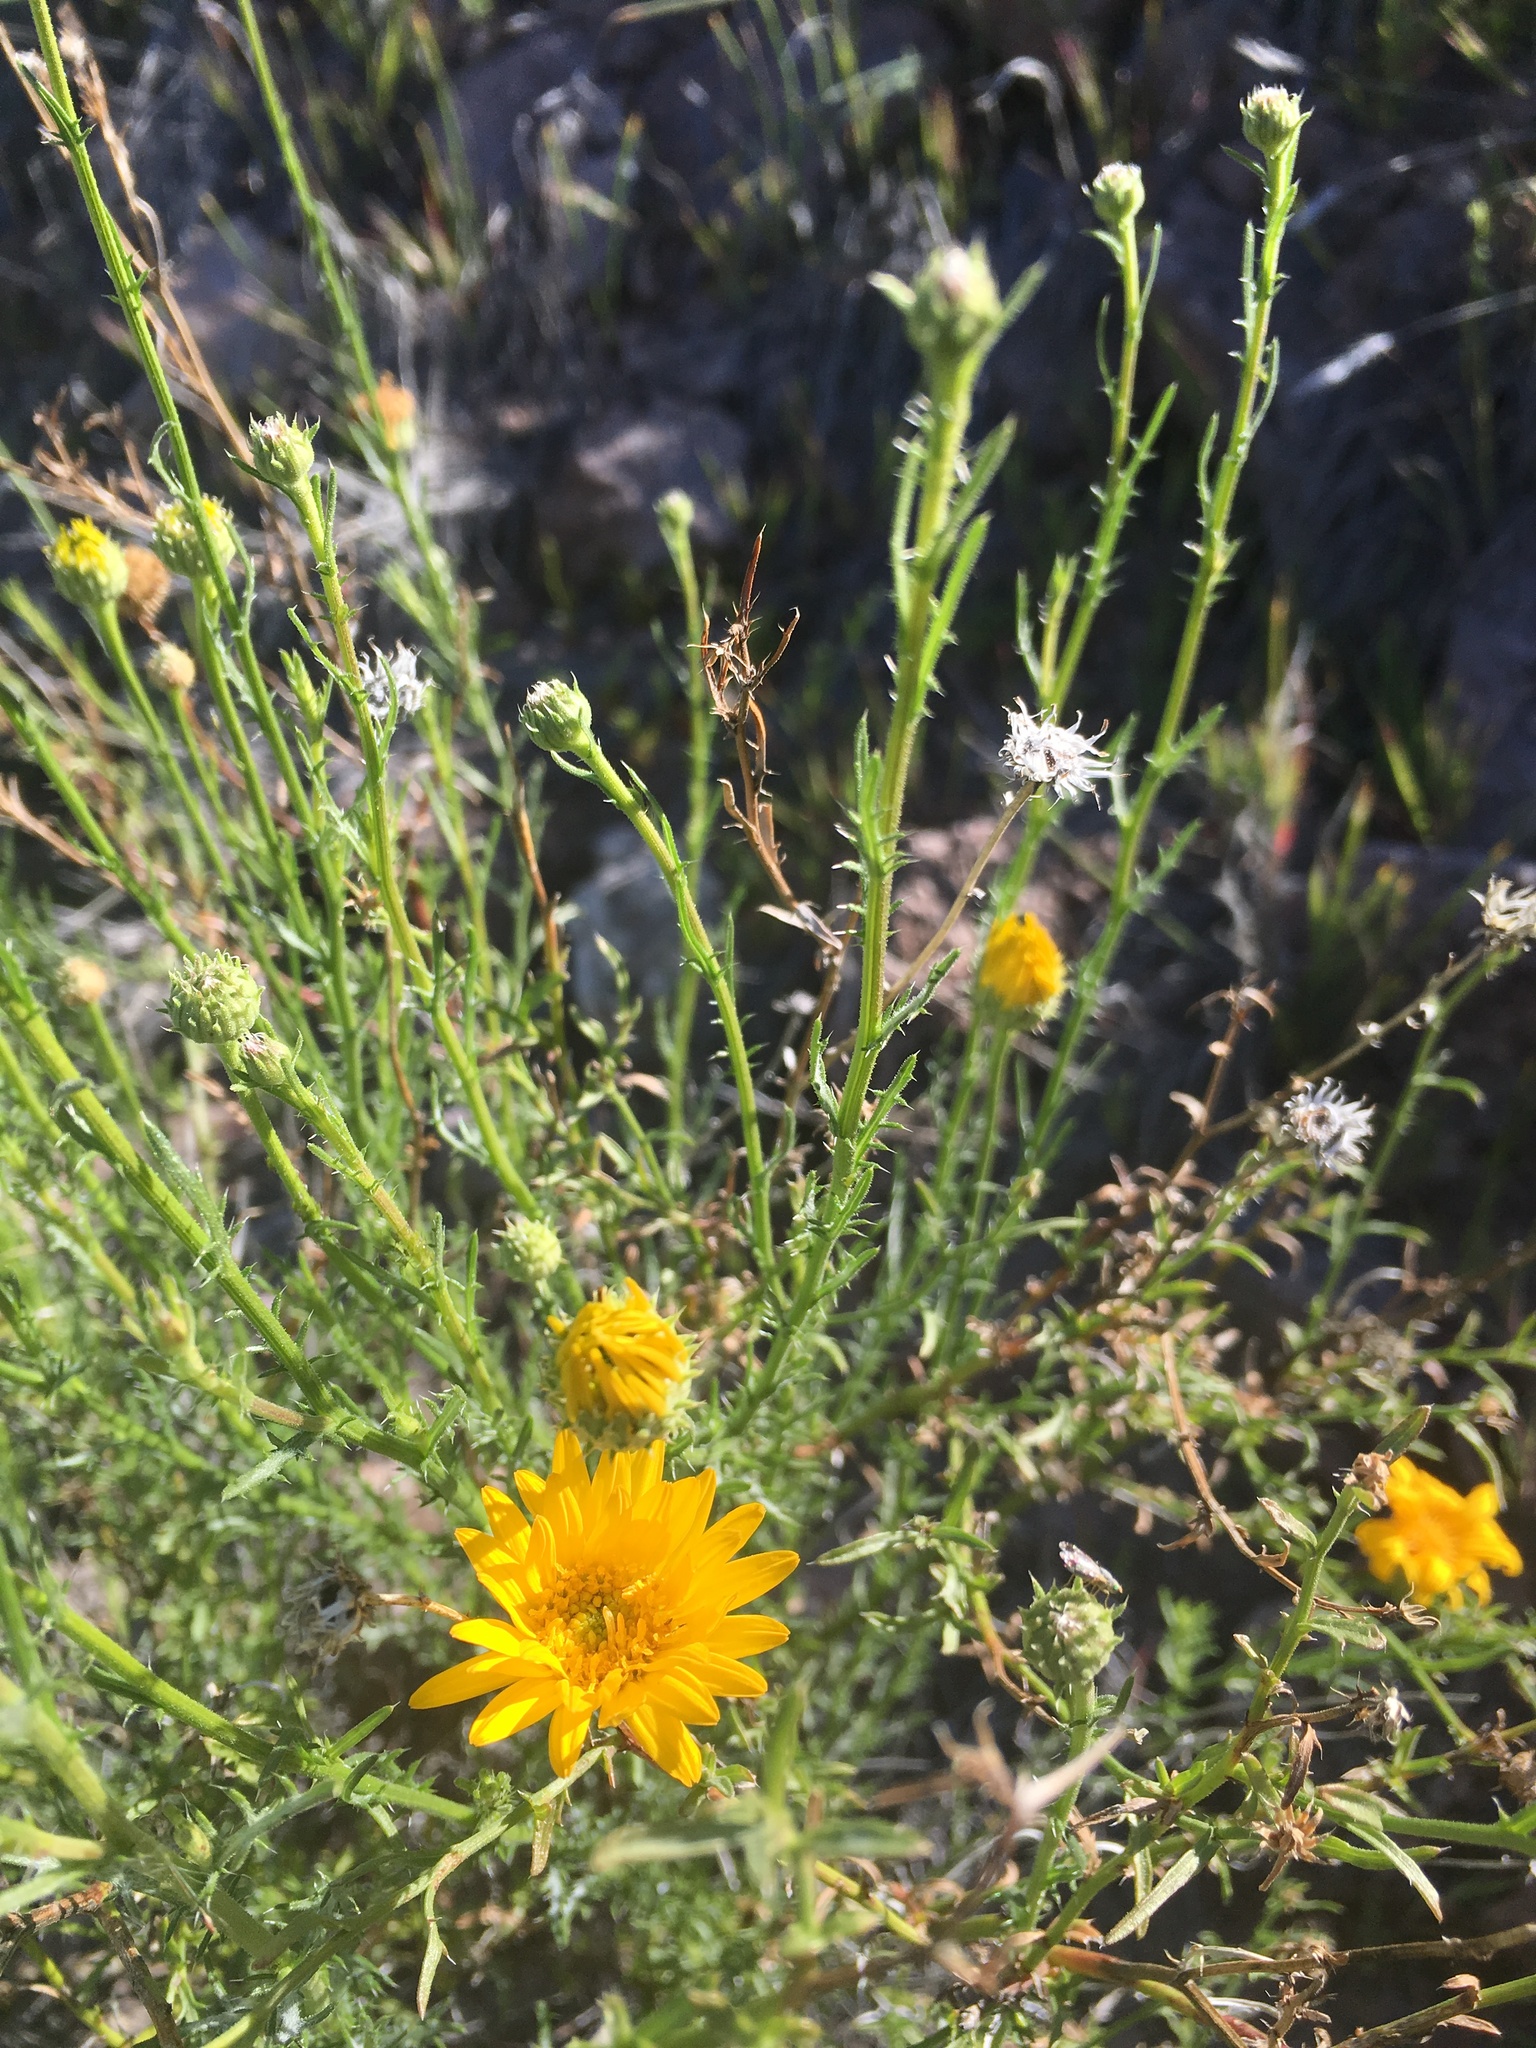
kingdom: Plantae
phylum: Tracheophyta
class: Magnoliopsida
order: Asterales
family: Asteraceae
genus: Xanthisma
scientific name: Xanthisma spinulosum
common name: Spiny goldenweed
